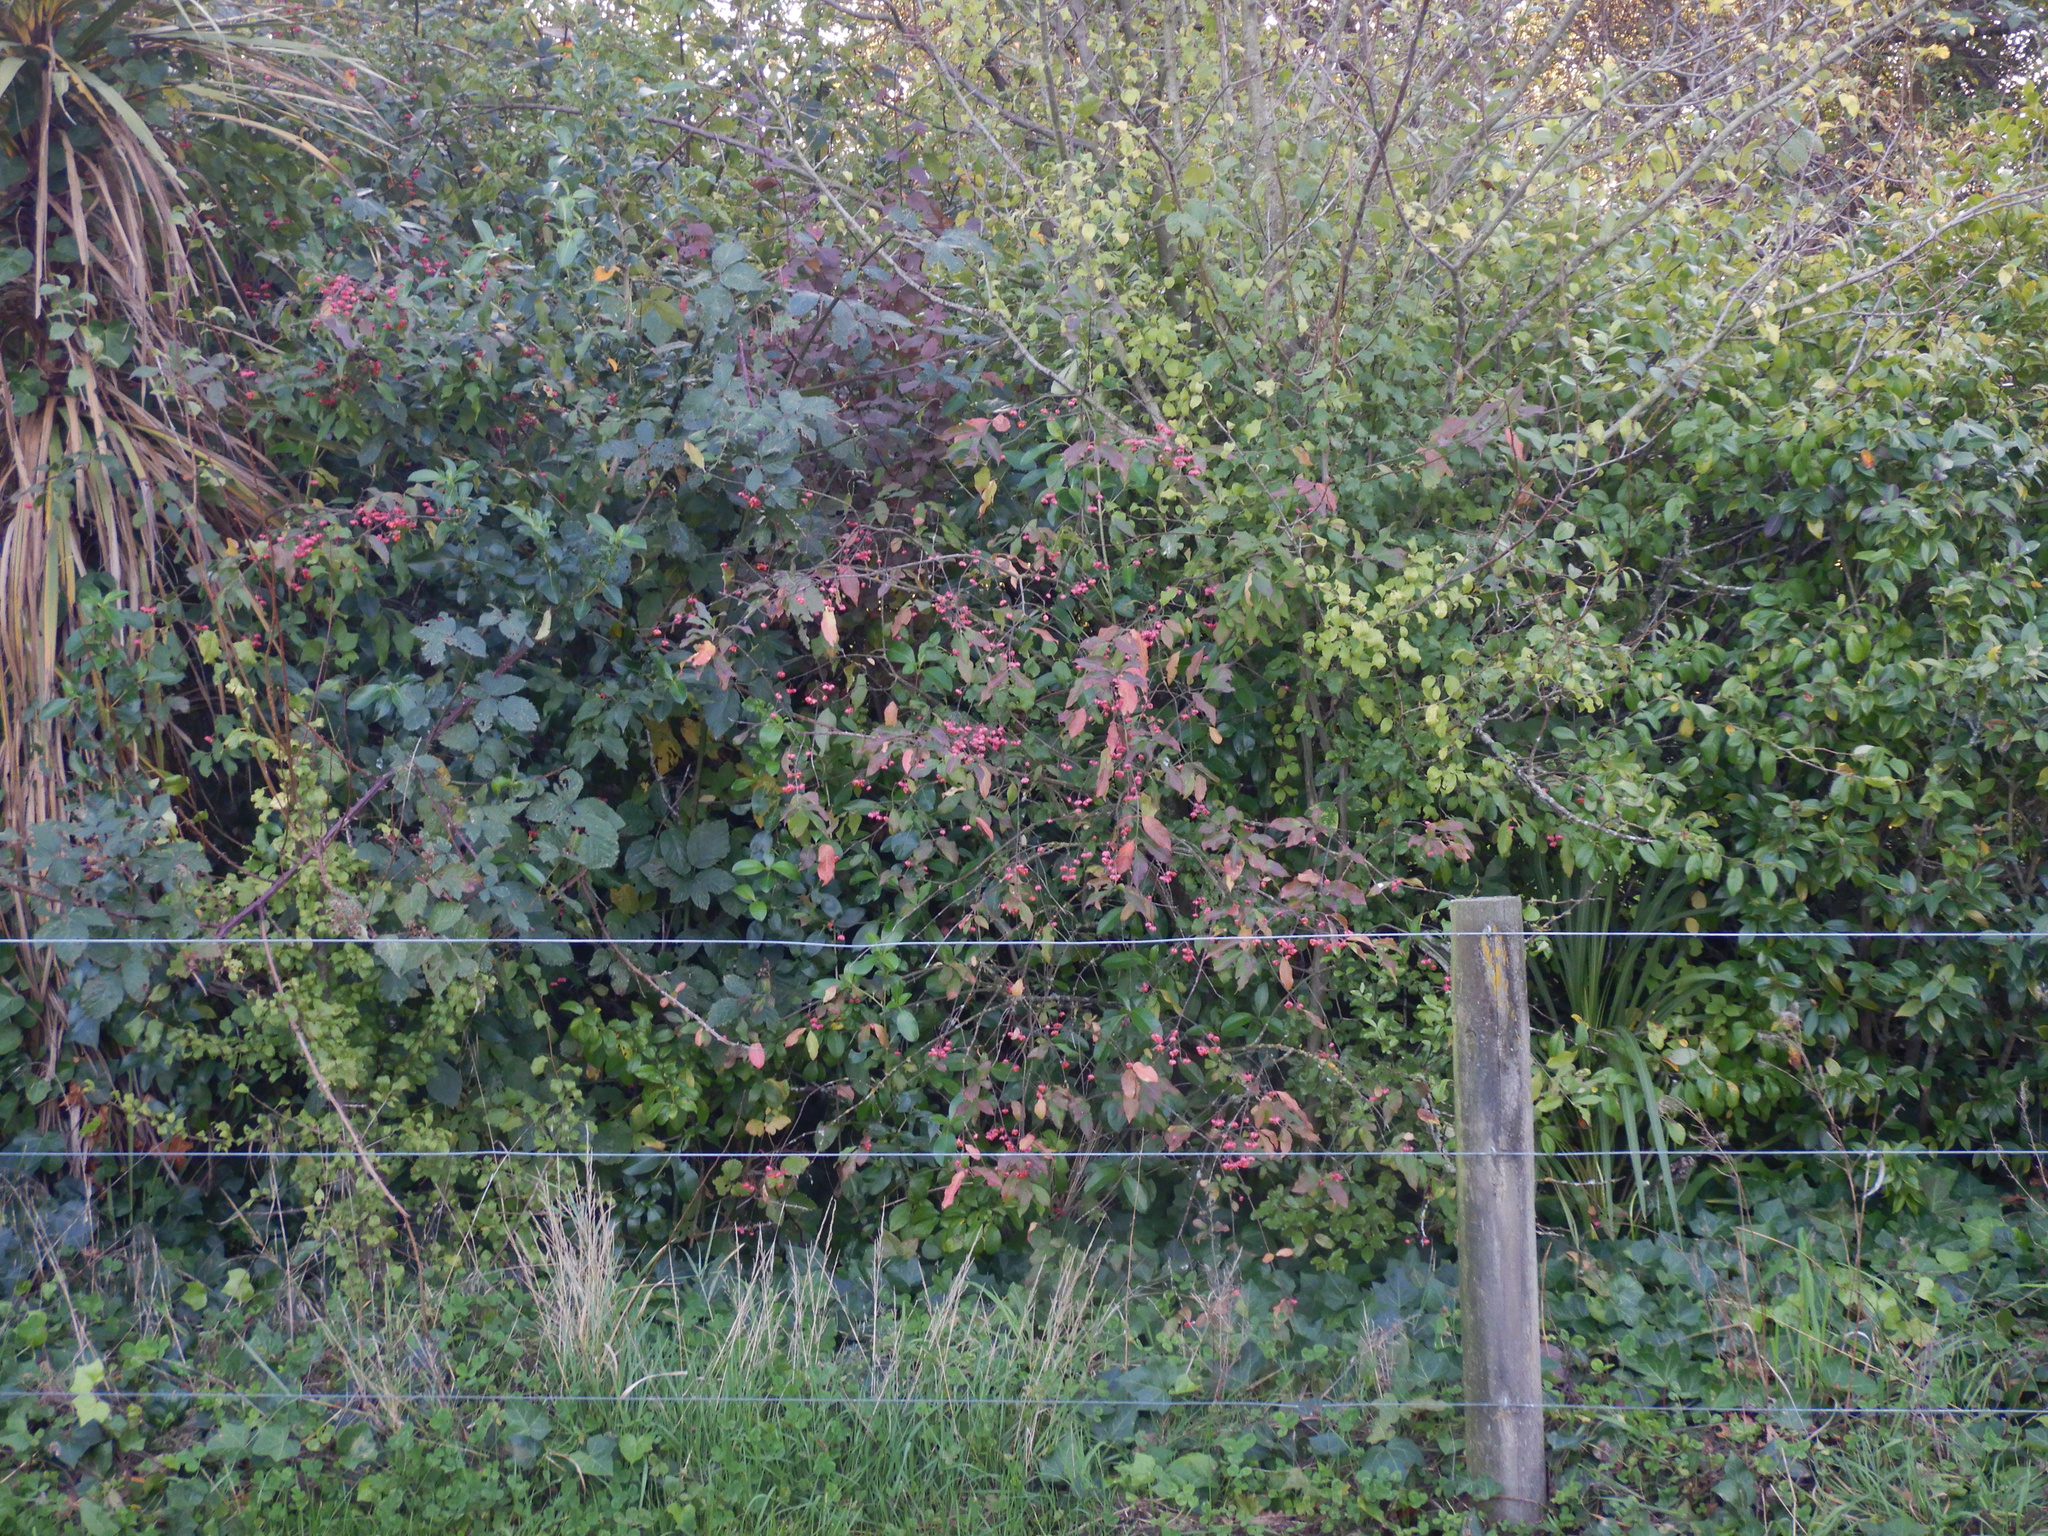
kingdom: Plantae
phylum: Tracheophyta
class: Magnoliopsida
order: Celastrales
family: Celastraceae
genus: Euonymus
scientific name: Euonymus europaeus
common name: Spindle
